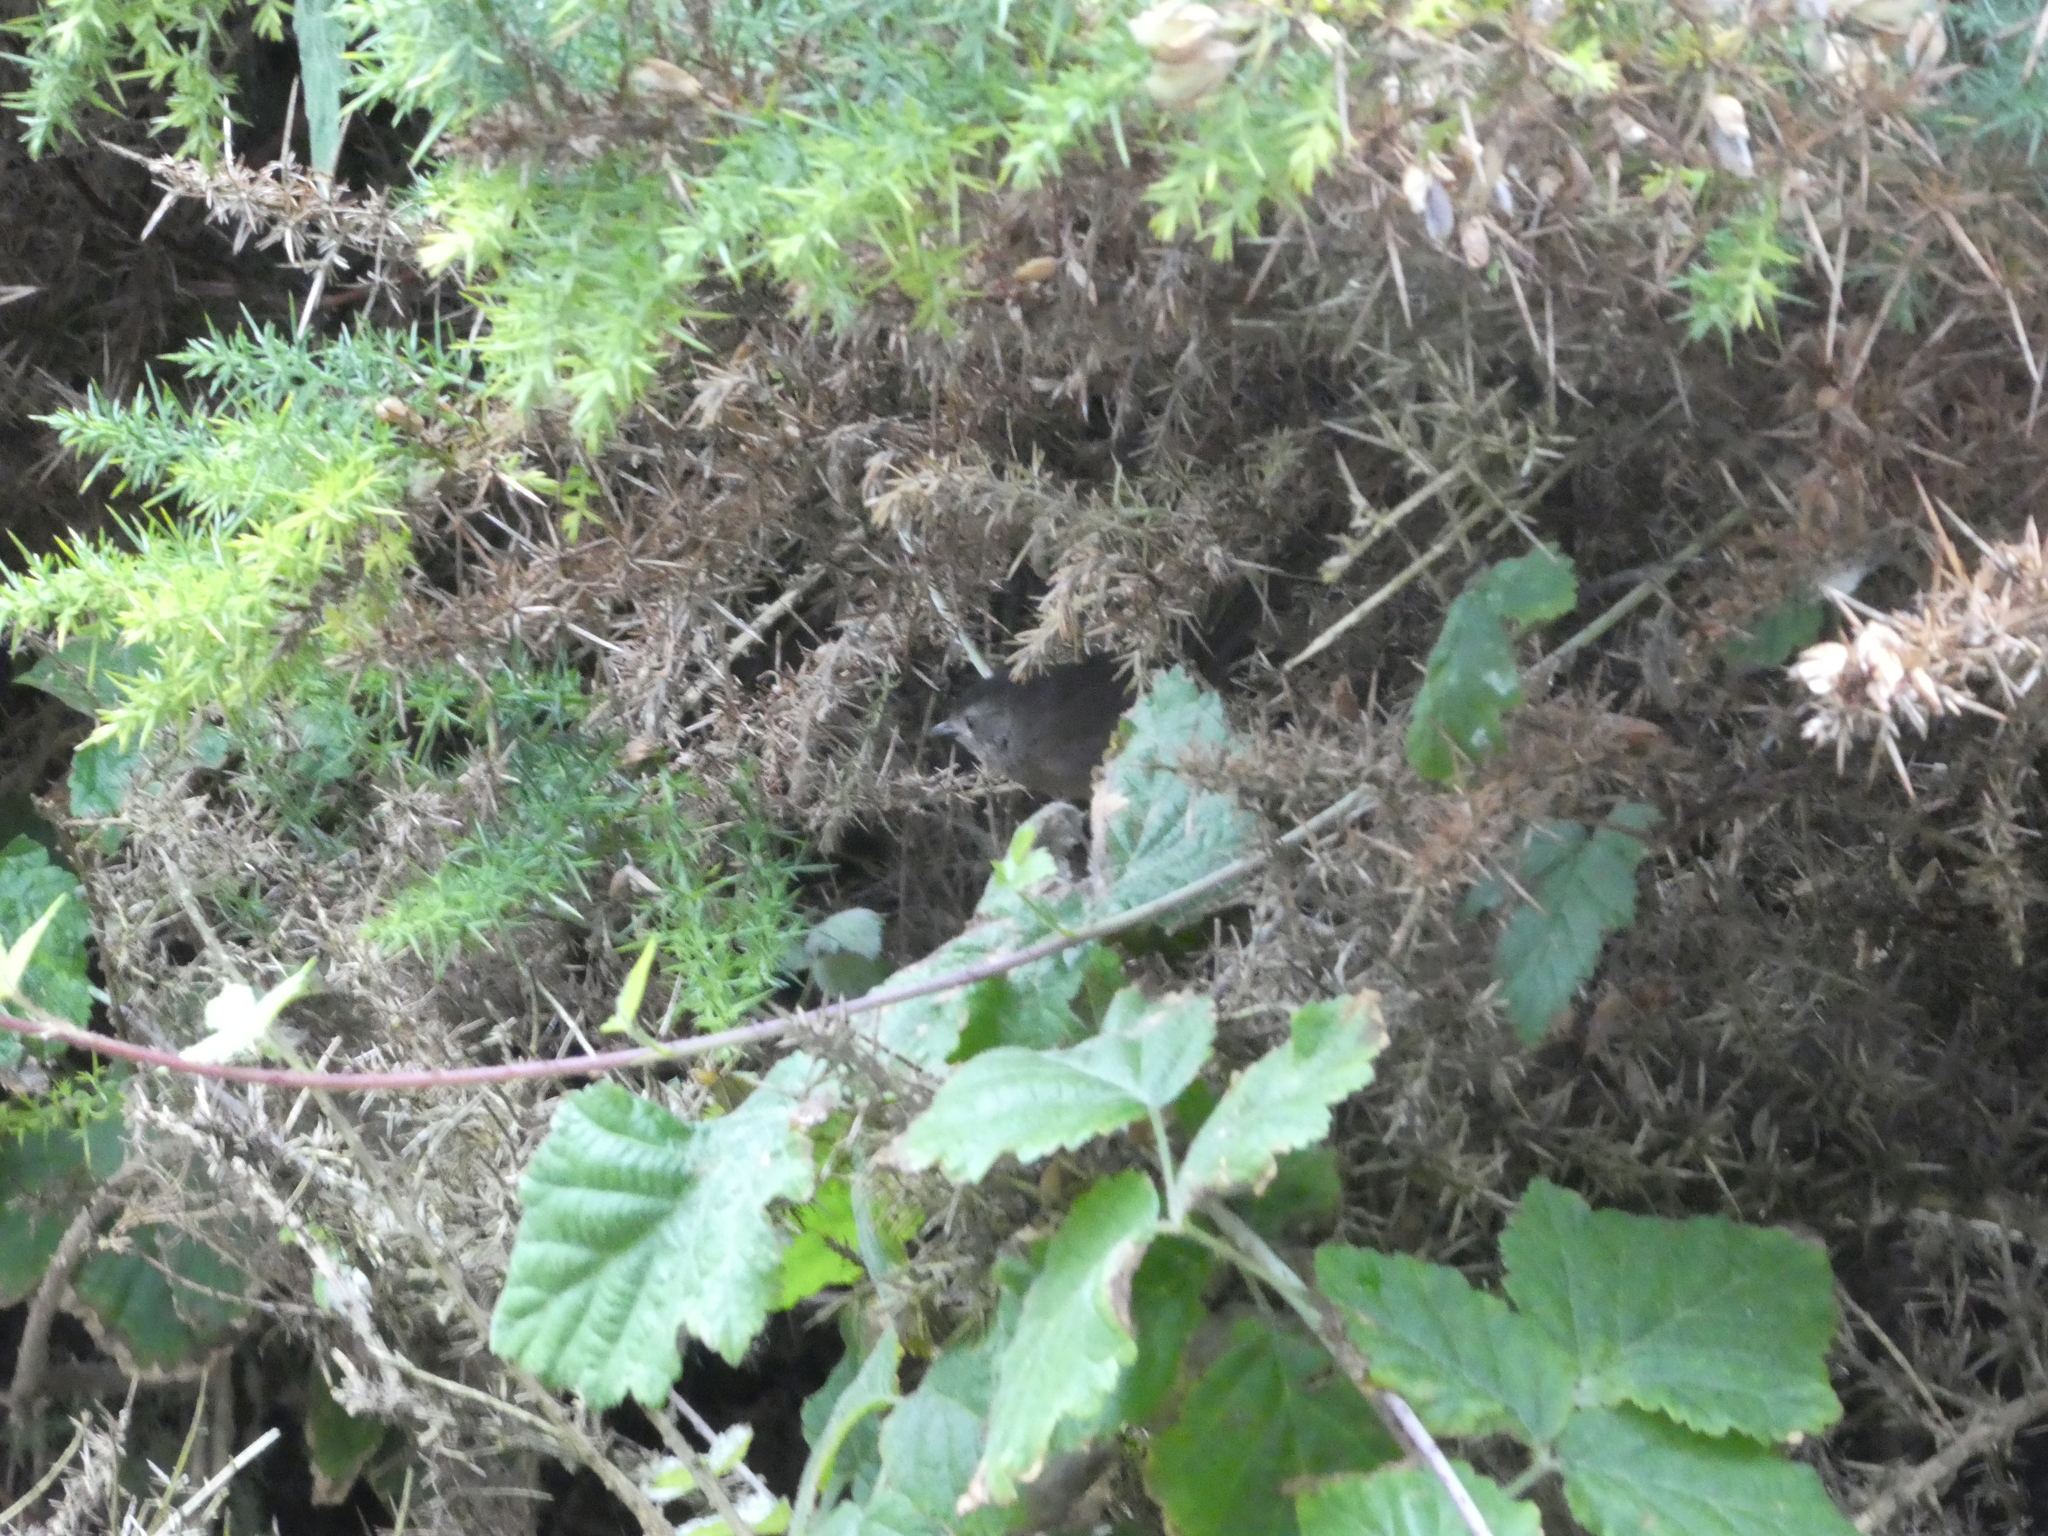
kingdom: Animalia
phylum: Chordata
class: Aves
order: Passeriformes
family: Sylviidae
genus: Chamaea
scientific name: Chamaea fasciata
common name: Wrentit
